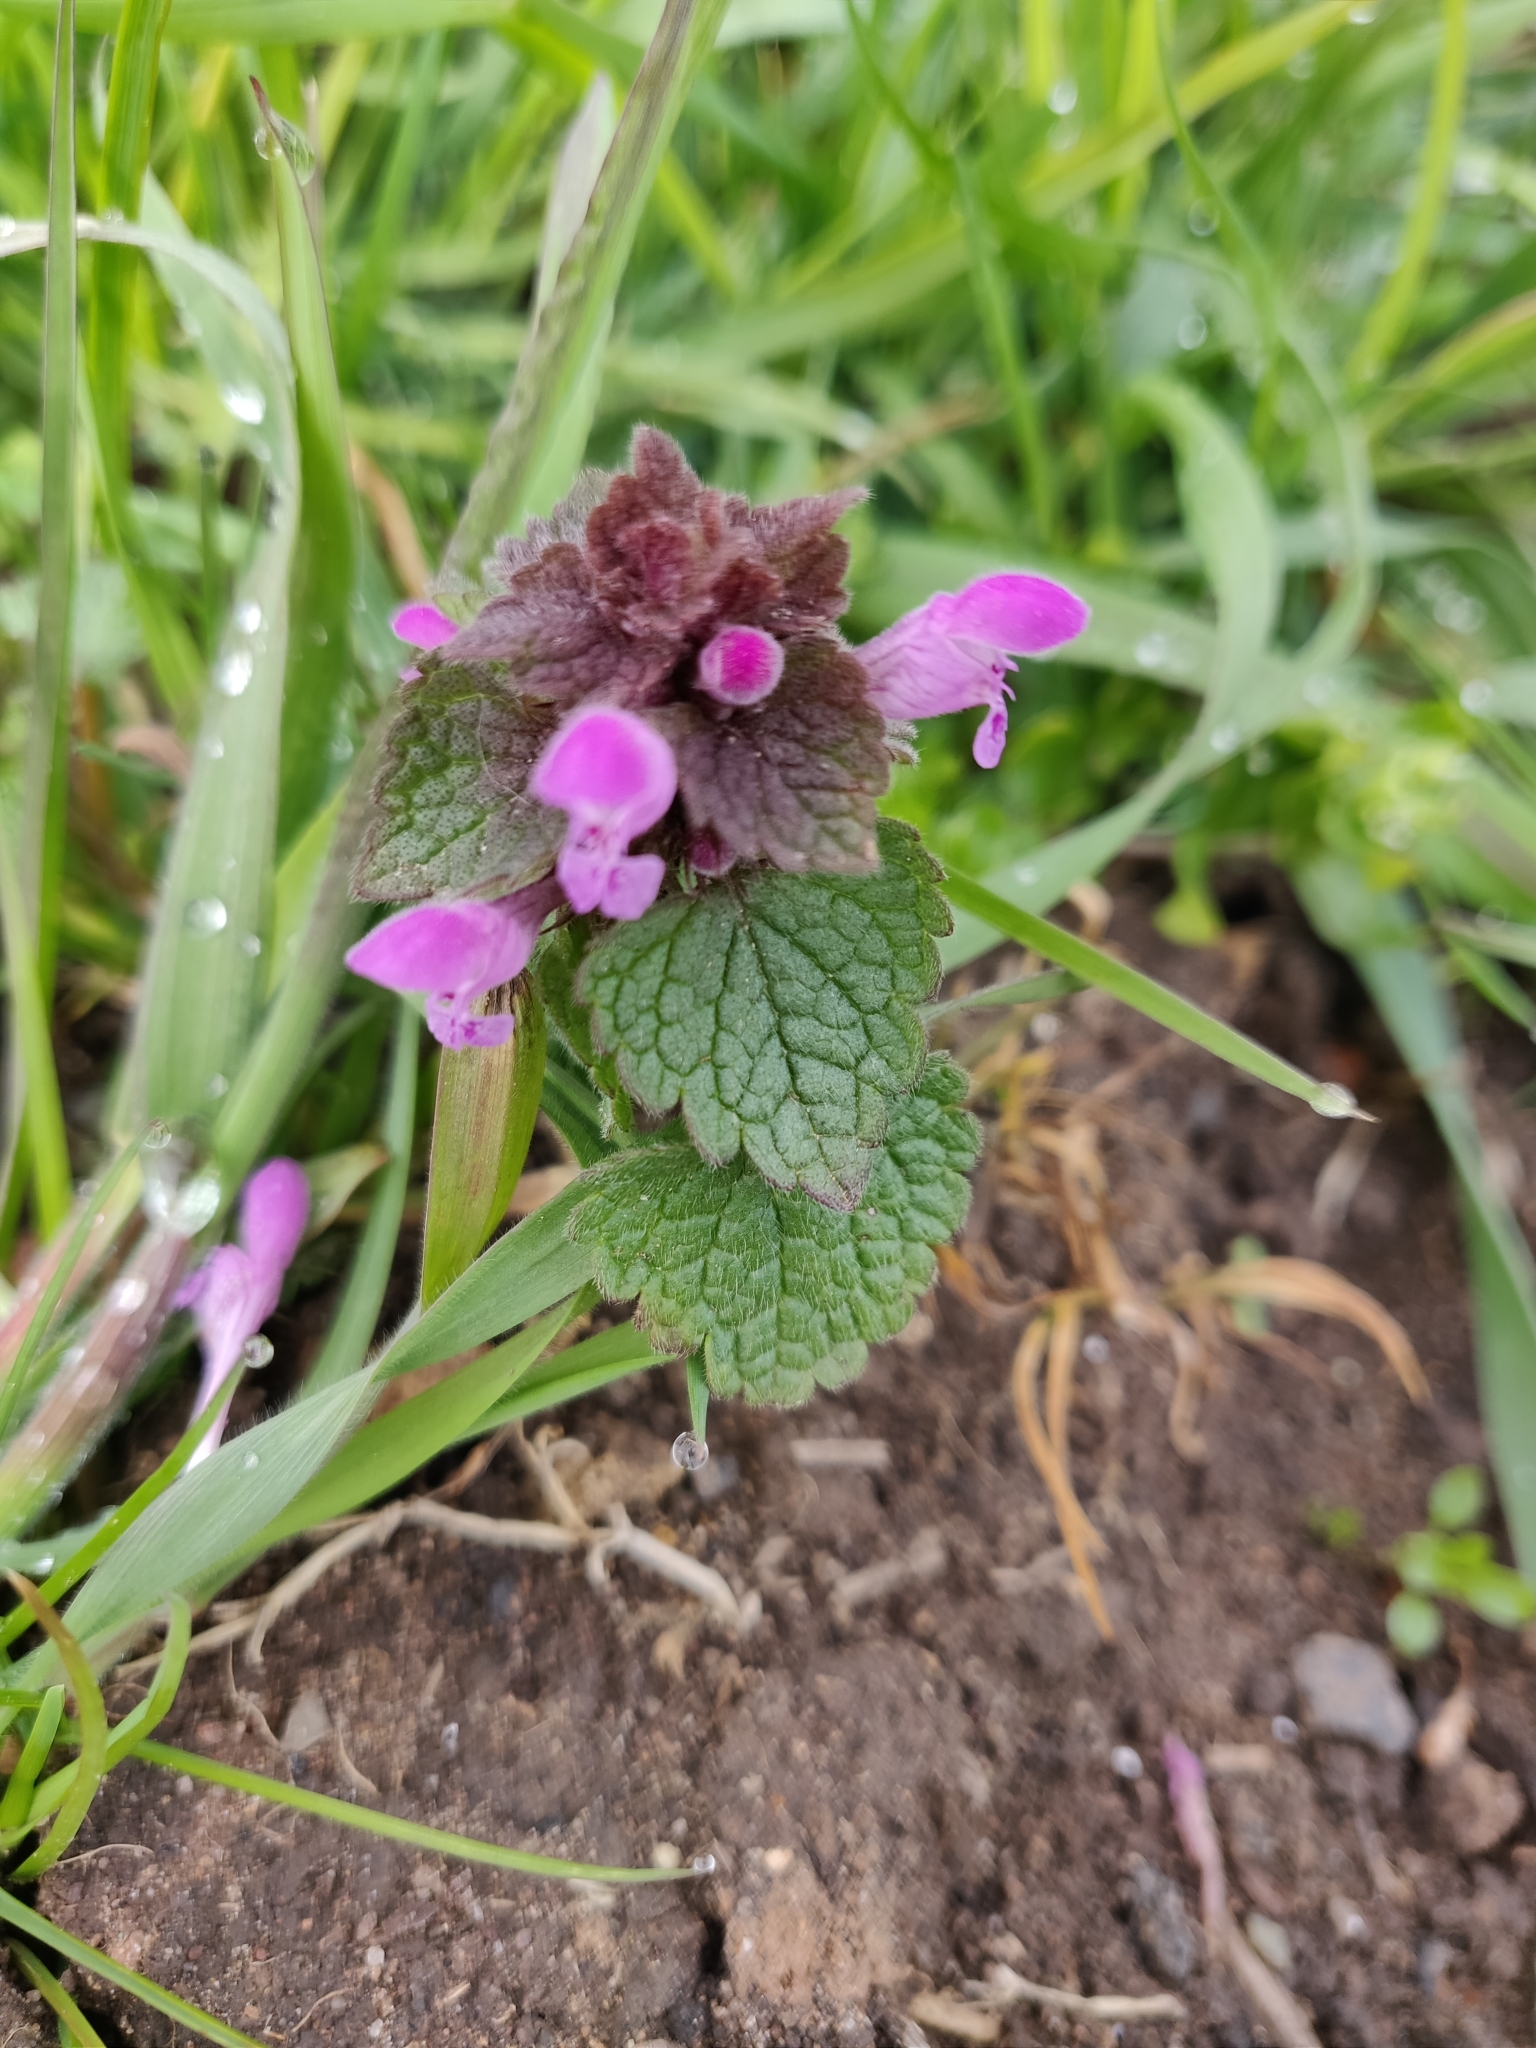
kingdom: Plantae
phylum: Tracheophyta
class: Magnoliopsida
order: Lamiales
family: Lamiaceae
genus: Lamium
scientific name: Lamium purpureum
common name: Red dead-nettle
